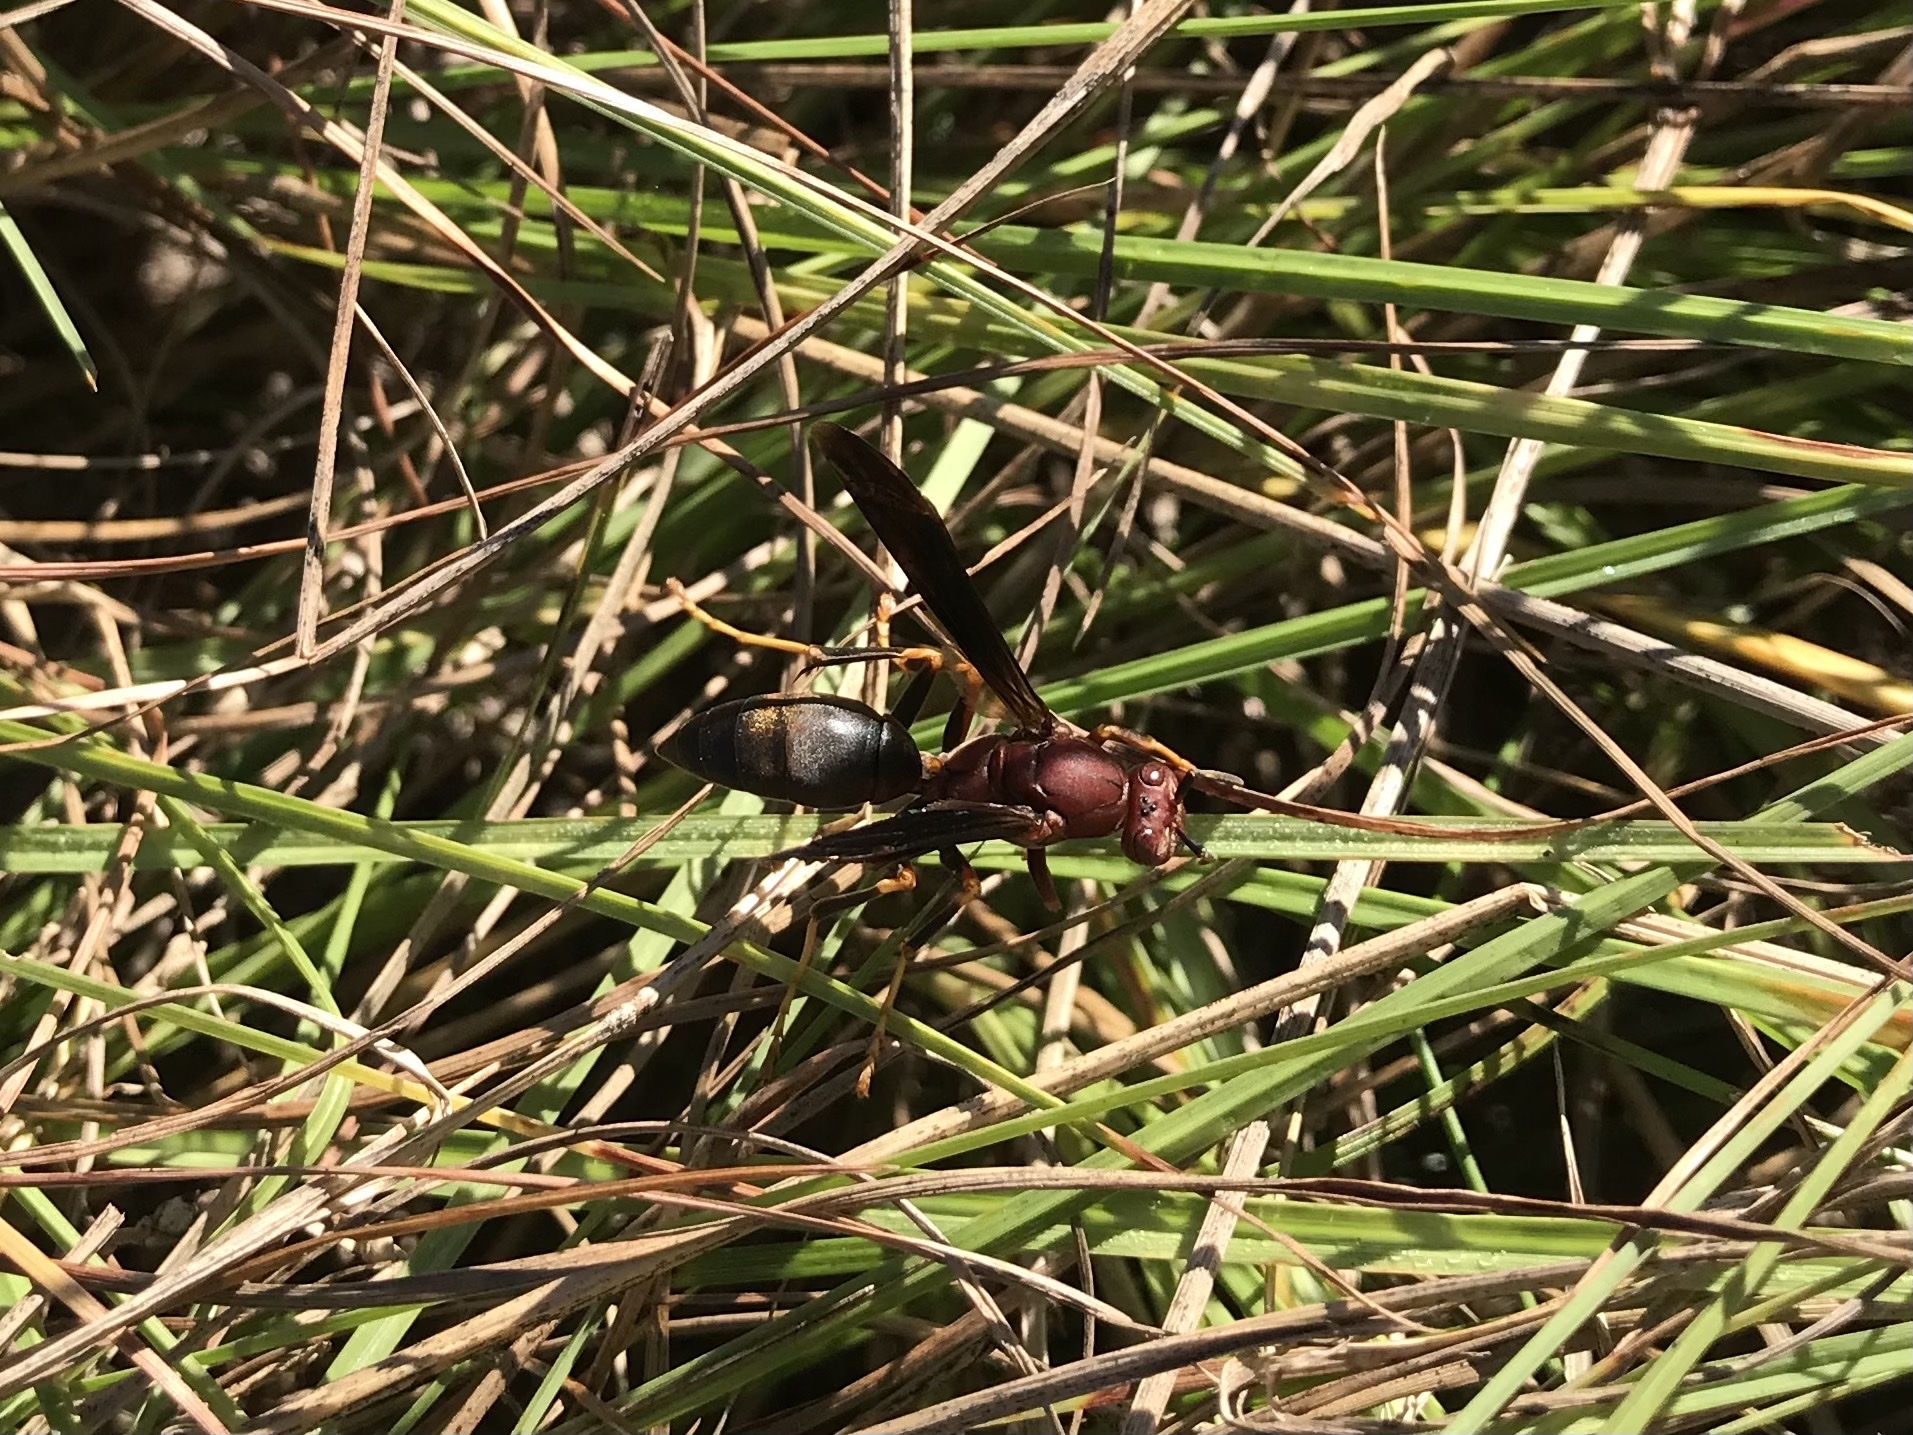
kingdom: Animalia
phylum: Arthropoda
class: Insecta
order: Hymenoptera
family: Eumenidae
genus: Polistes
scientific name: Polistes metricus
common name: Metric paper wasp
